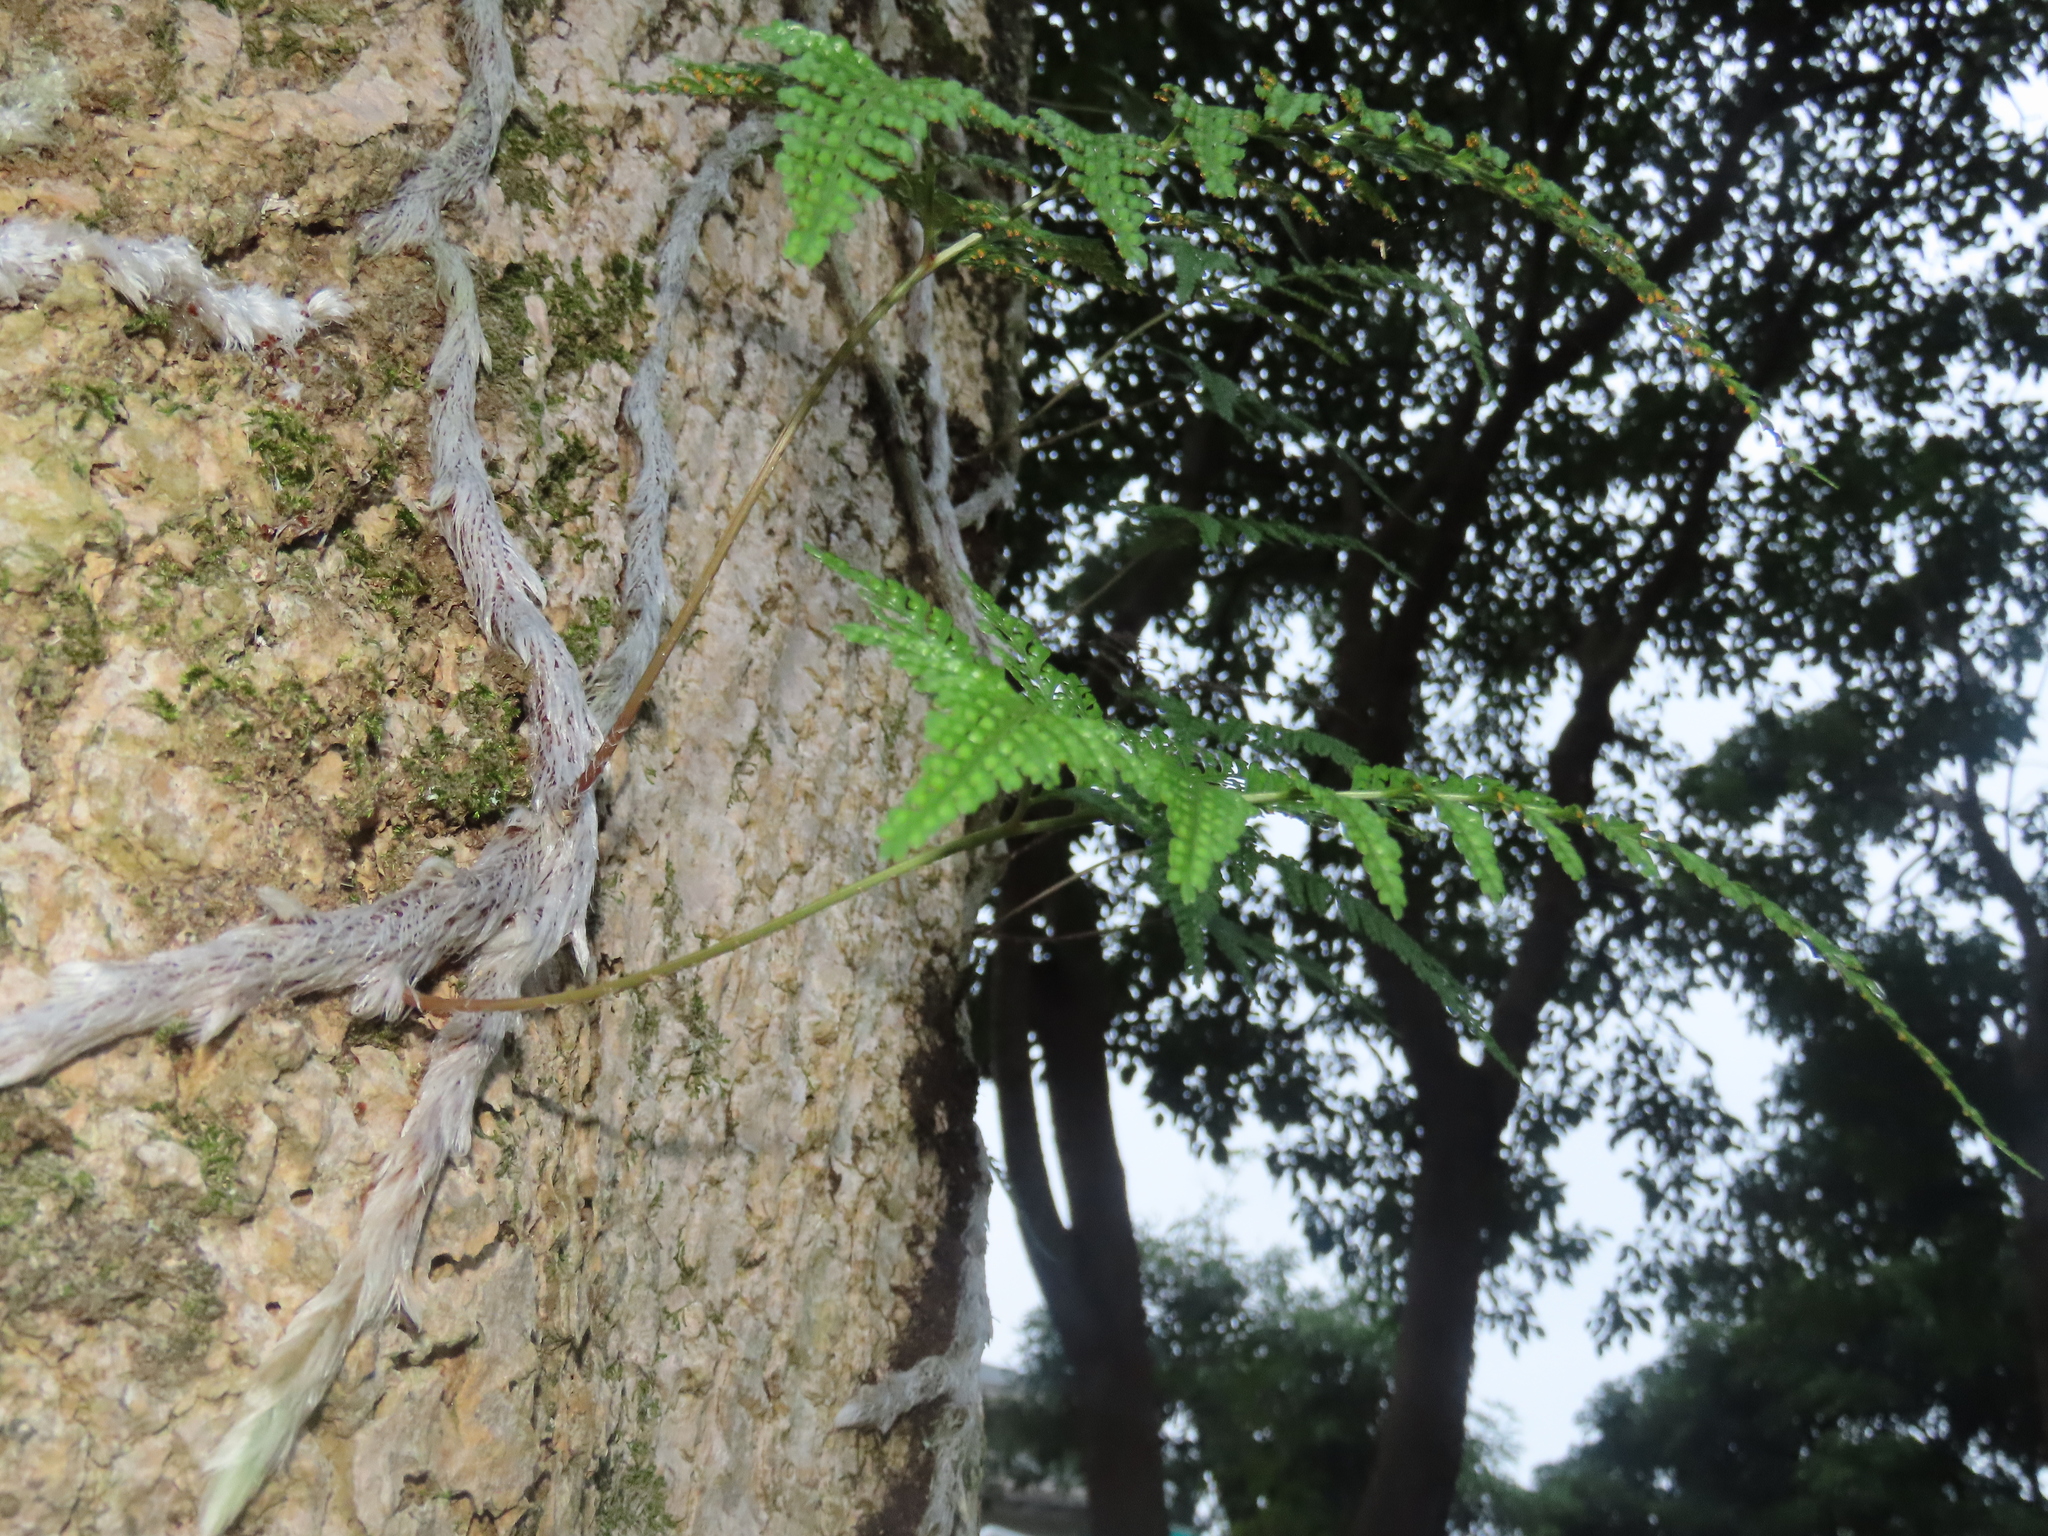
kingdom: Plantae
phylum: Tracheophyta
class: Polypodiopsida
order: Polypodiales
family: Davalliaceae
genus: Davallia
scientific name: Davallia griffithiana
